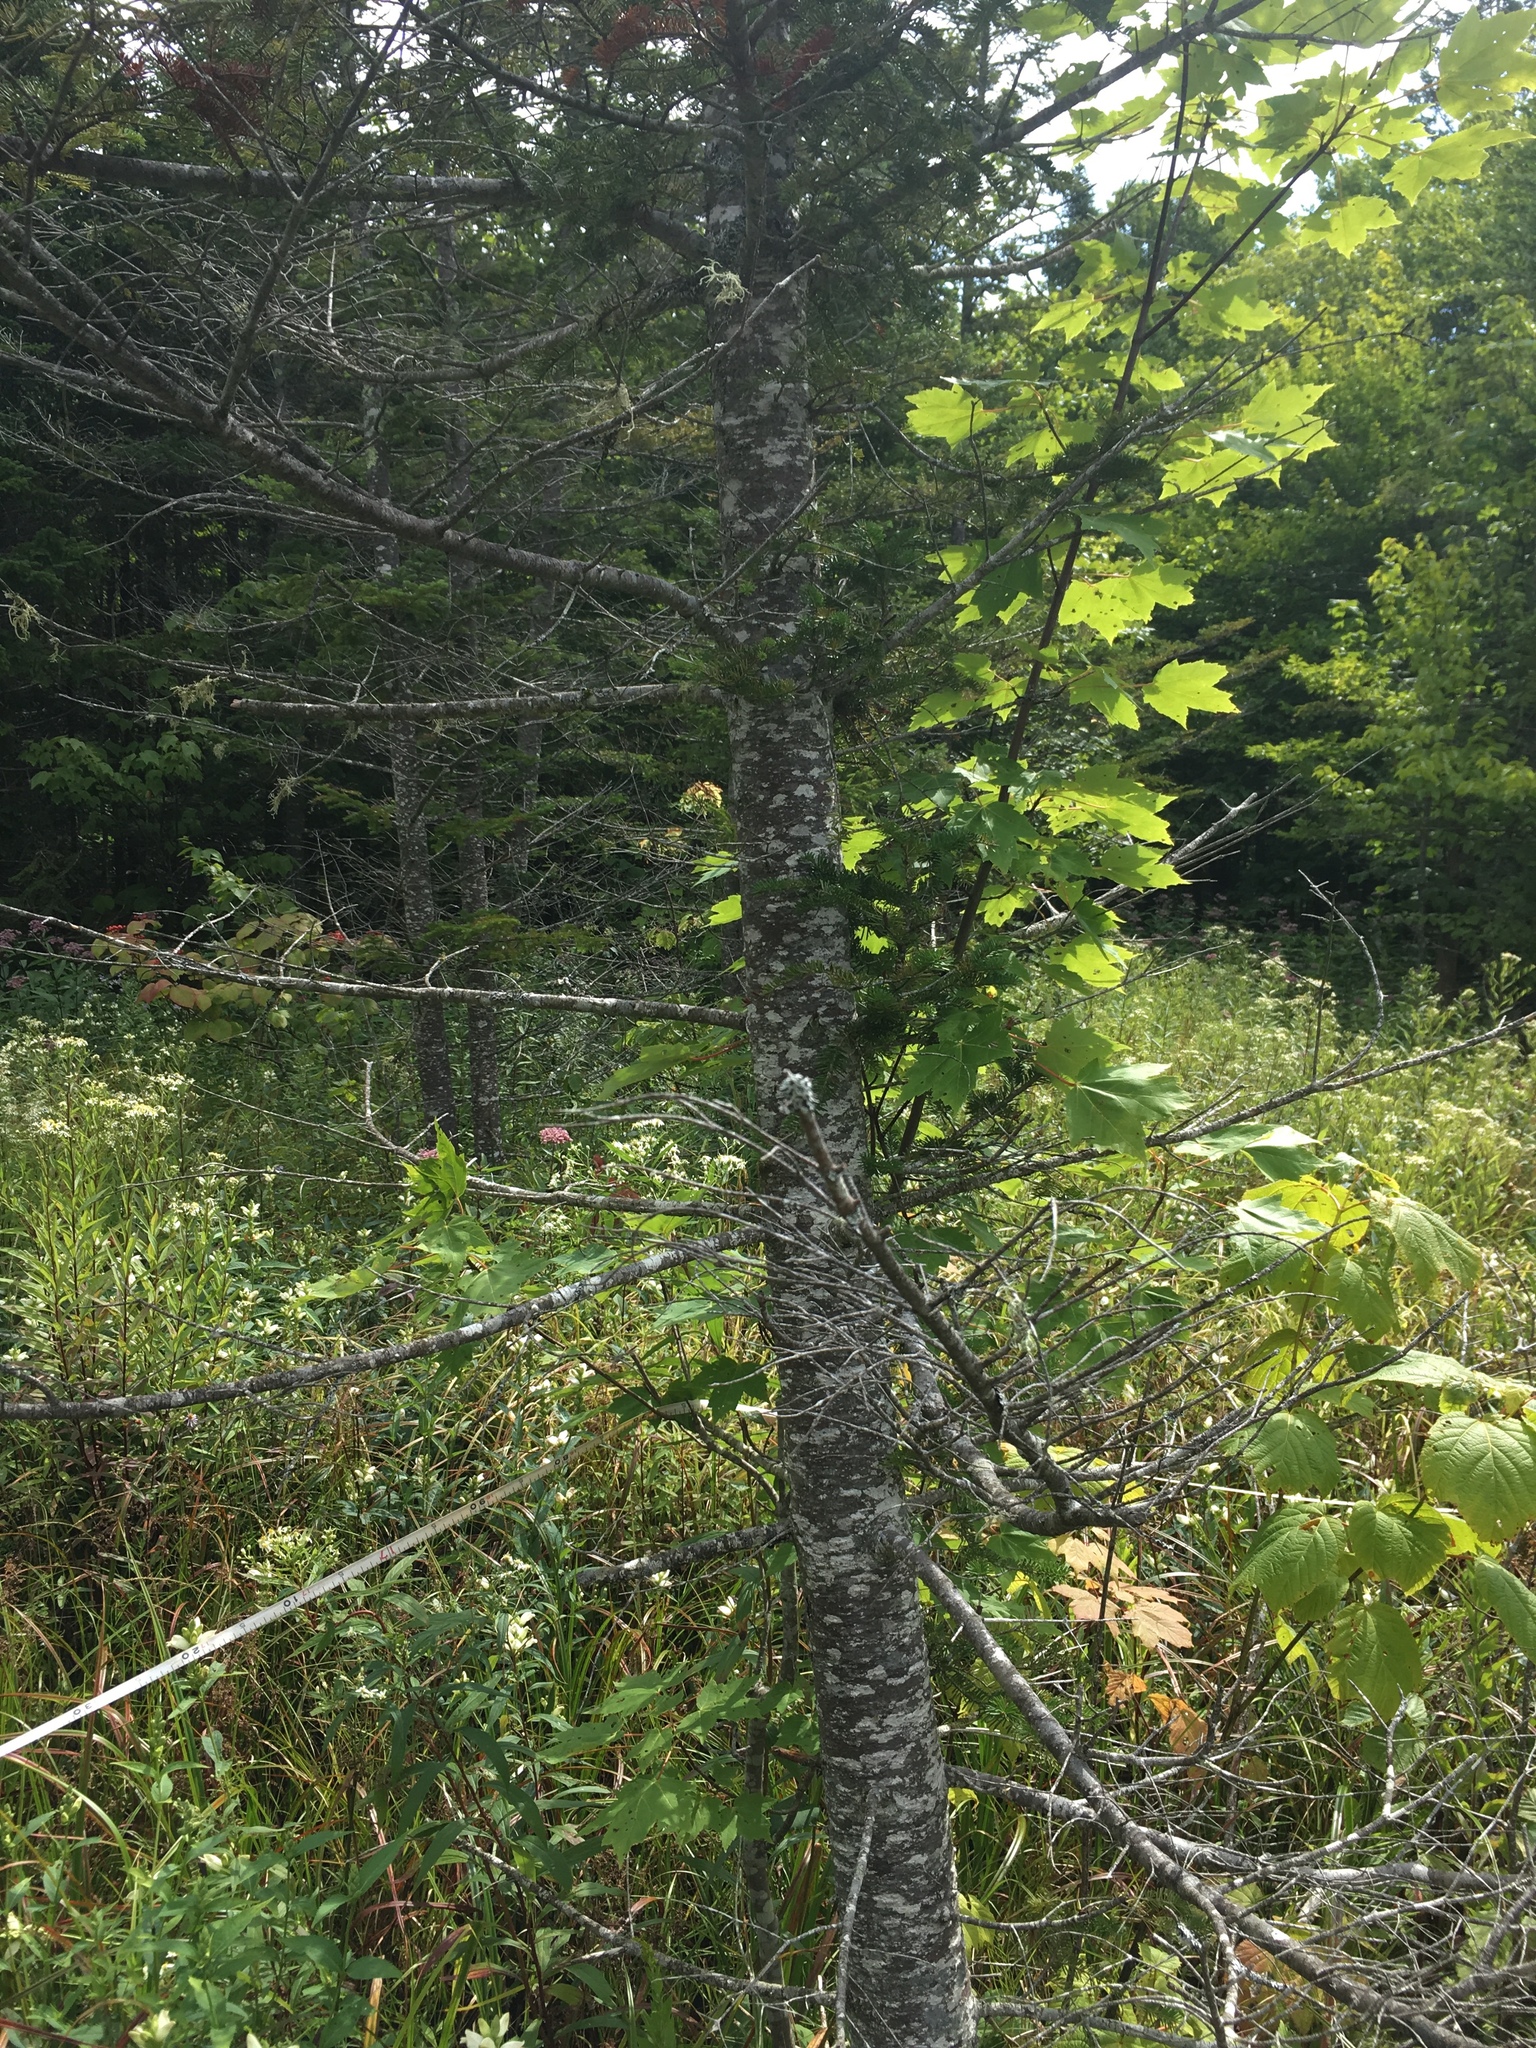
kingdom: Plantae
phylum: Tracheophyta
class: Pinopsida
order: Pinales
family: Pinaceae
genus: Abies
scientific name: Abies balsamea
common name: Balsam fir
